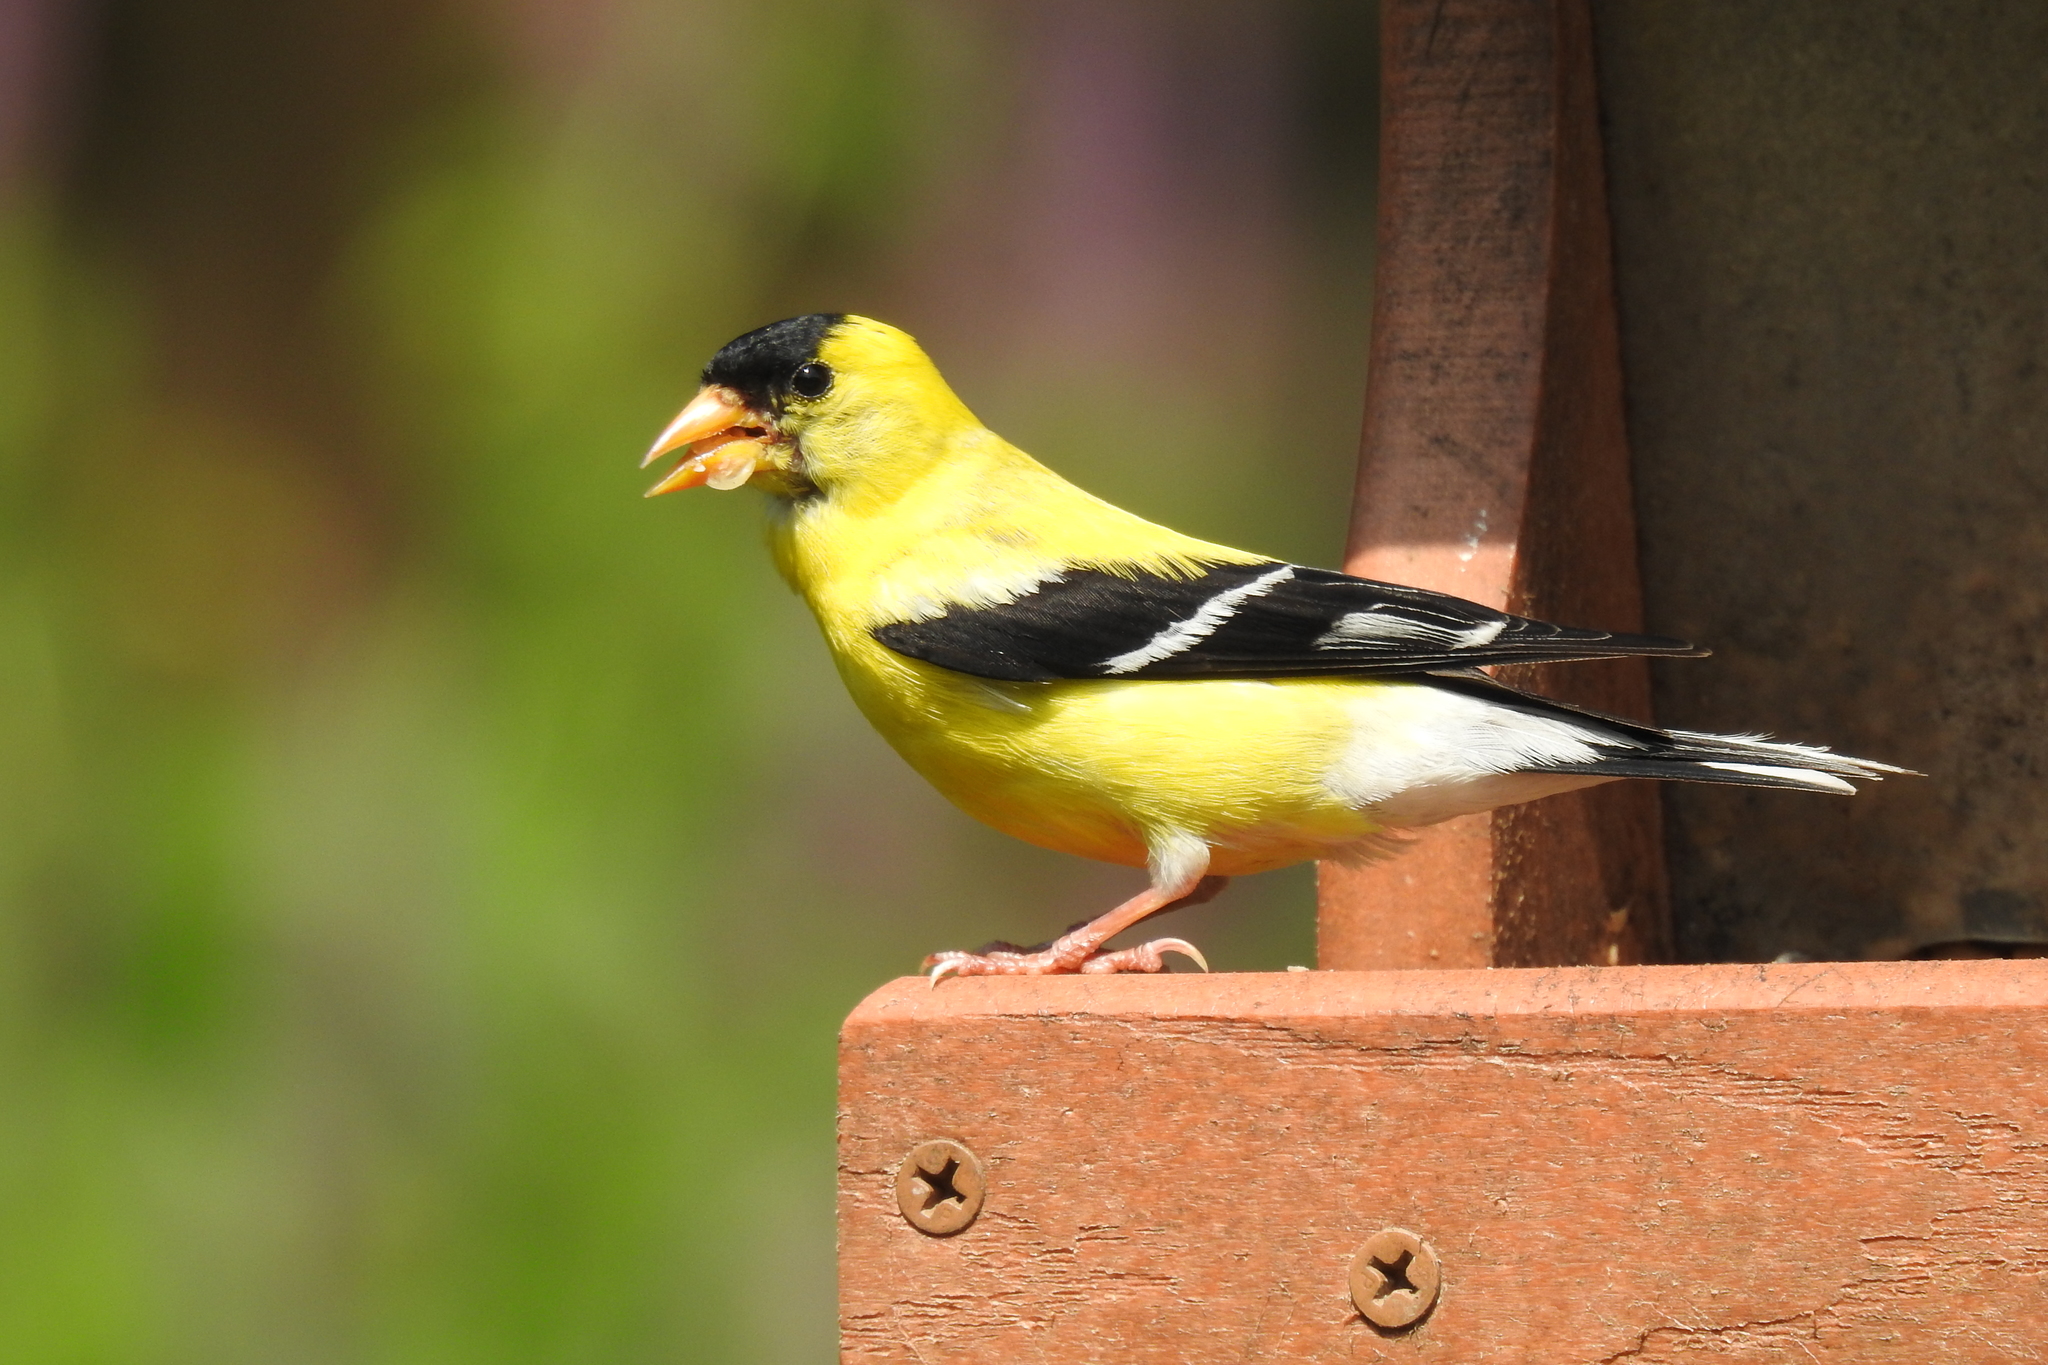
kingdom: Animalia
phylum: Chordata
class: Aves
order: Passeriformes
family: Fringillidae
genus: Spinus
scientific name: Spinus tristis
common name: American goldfinch
